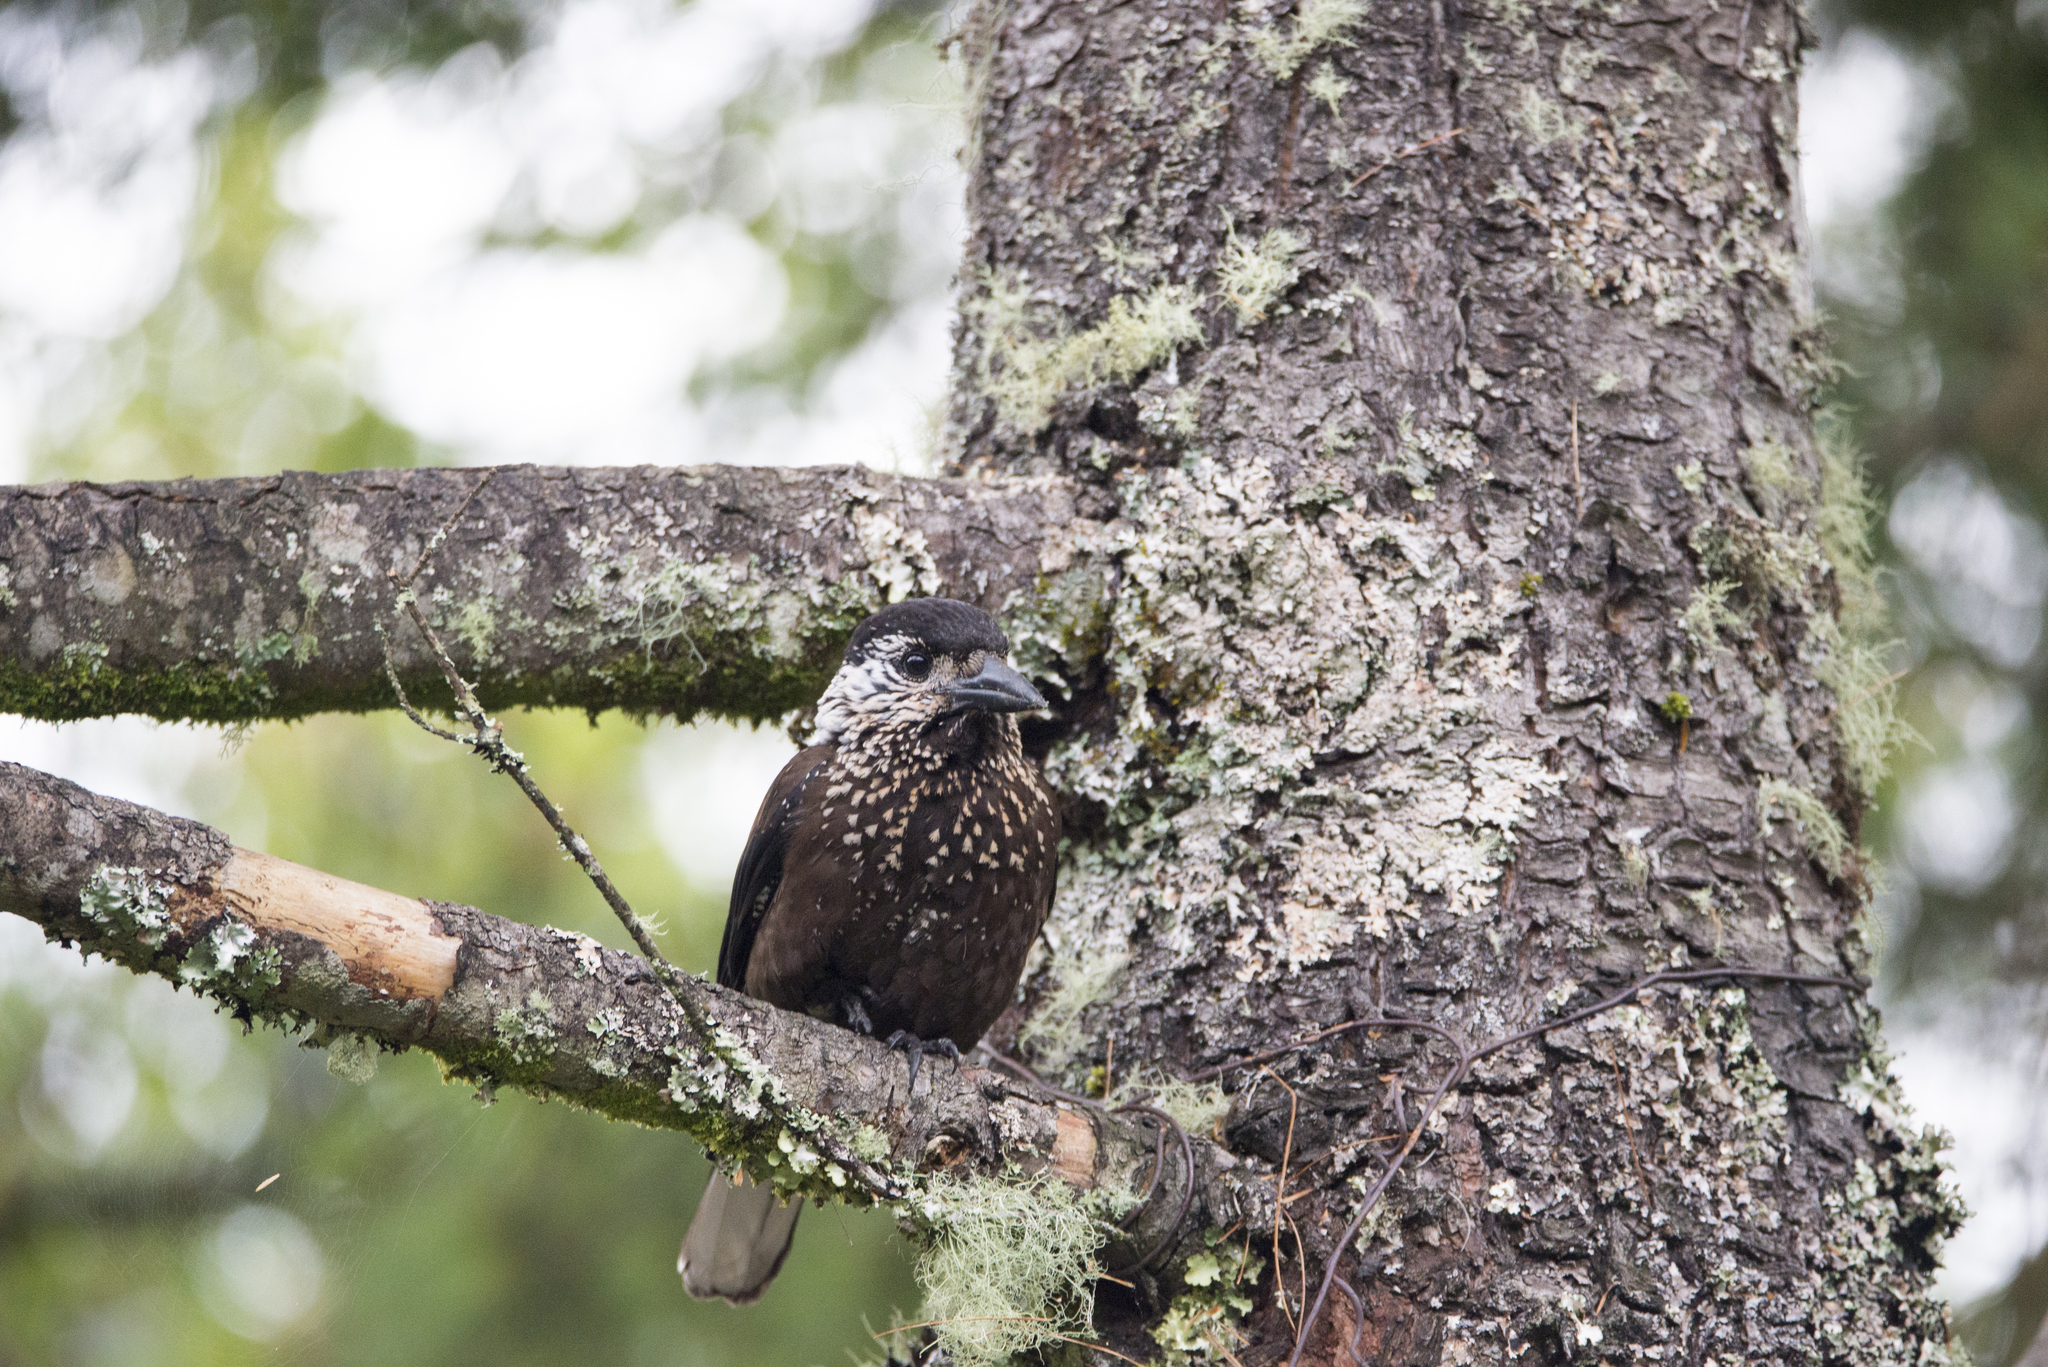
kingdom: Animalia
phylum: Chordata
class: Aves
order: Passeriformes
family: Corvidae
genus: Nucifraga
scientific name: Nucifraga caryocatactes
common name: Spotted nutcracker
